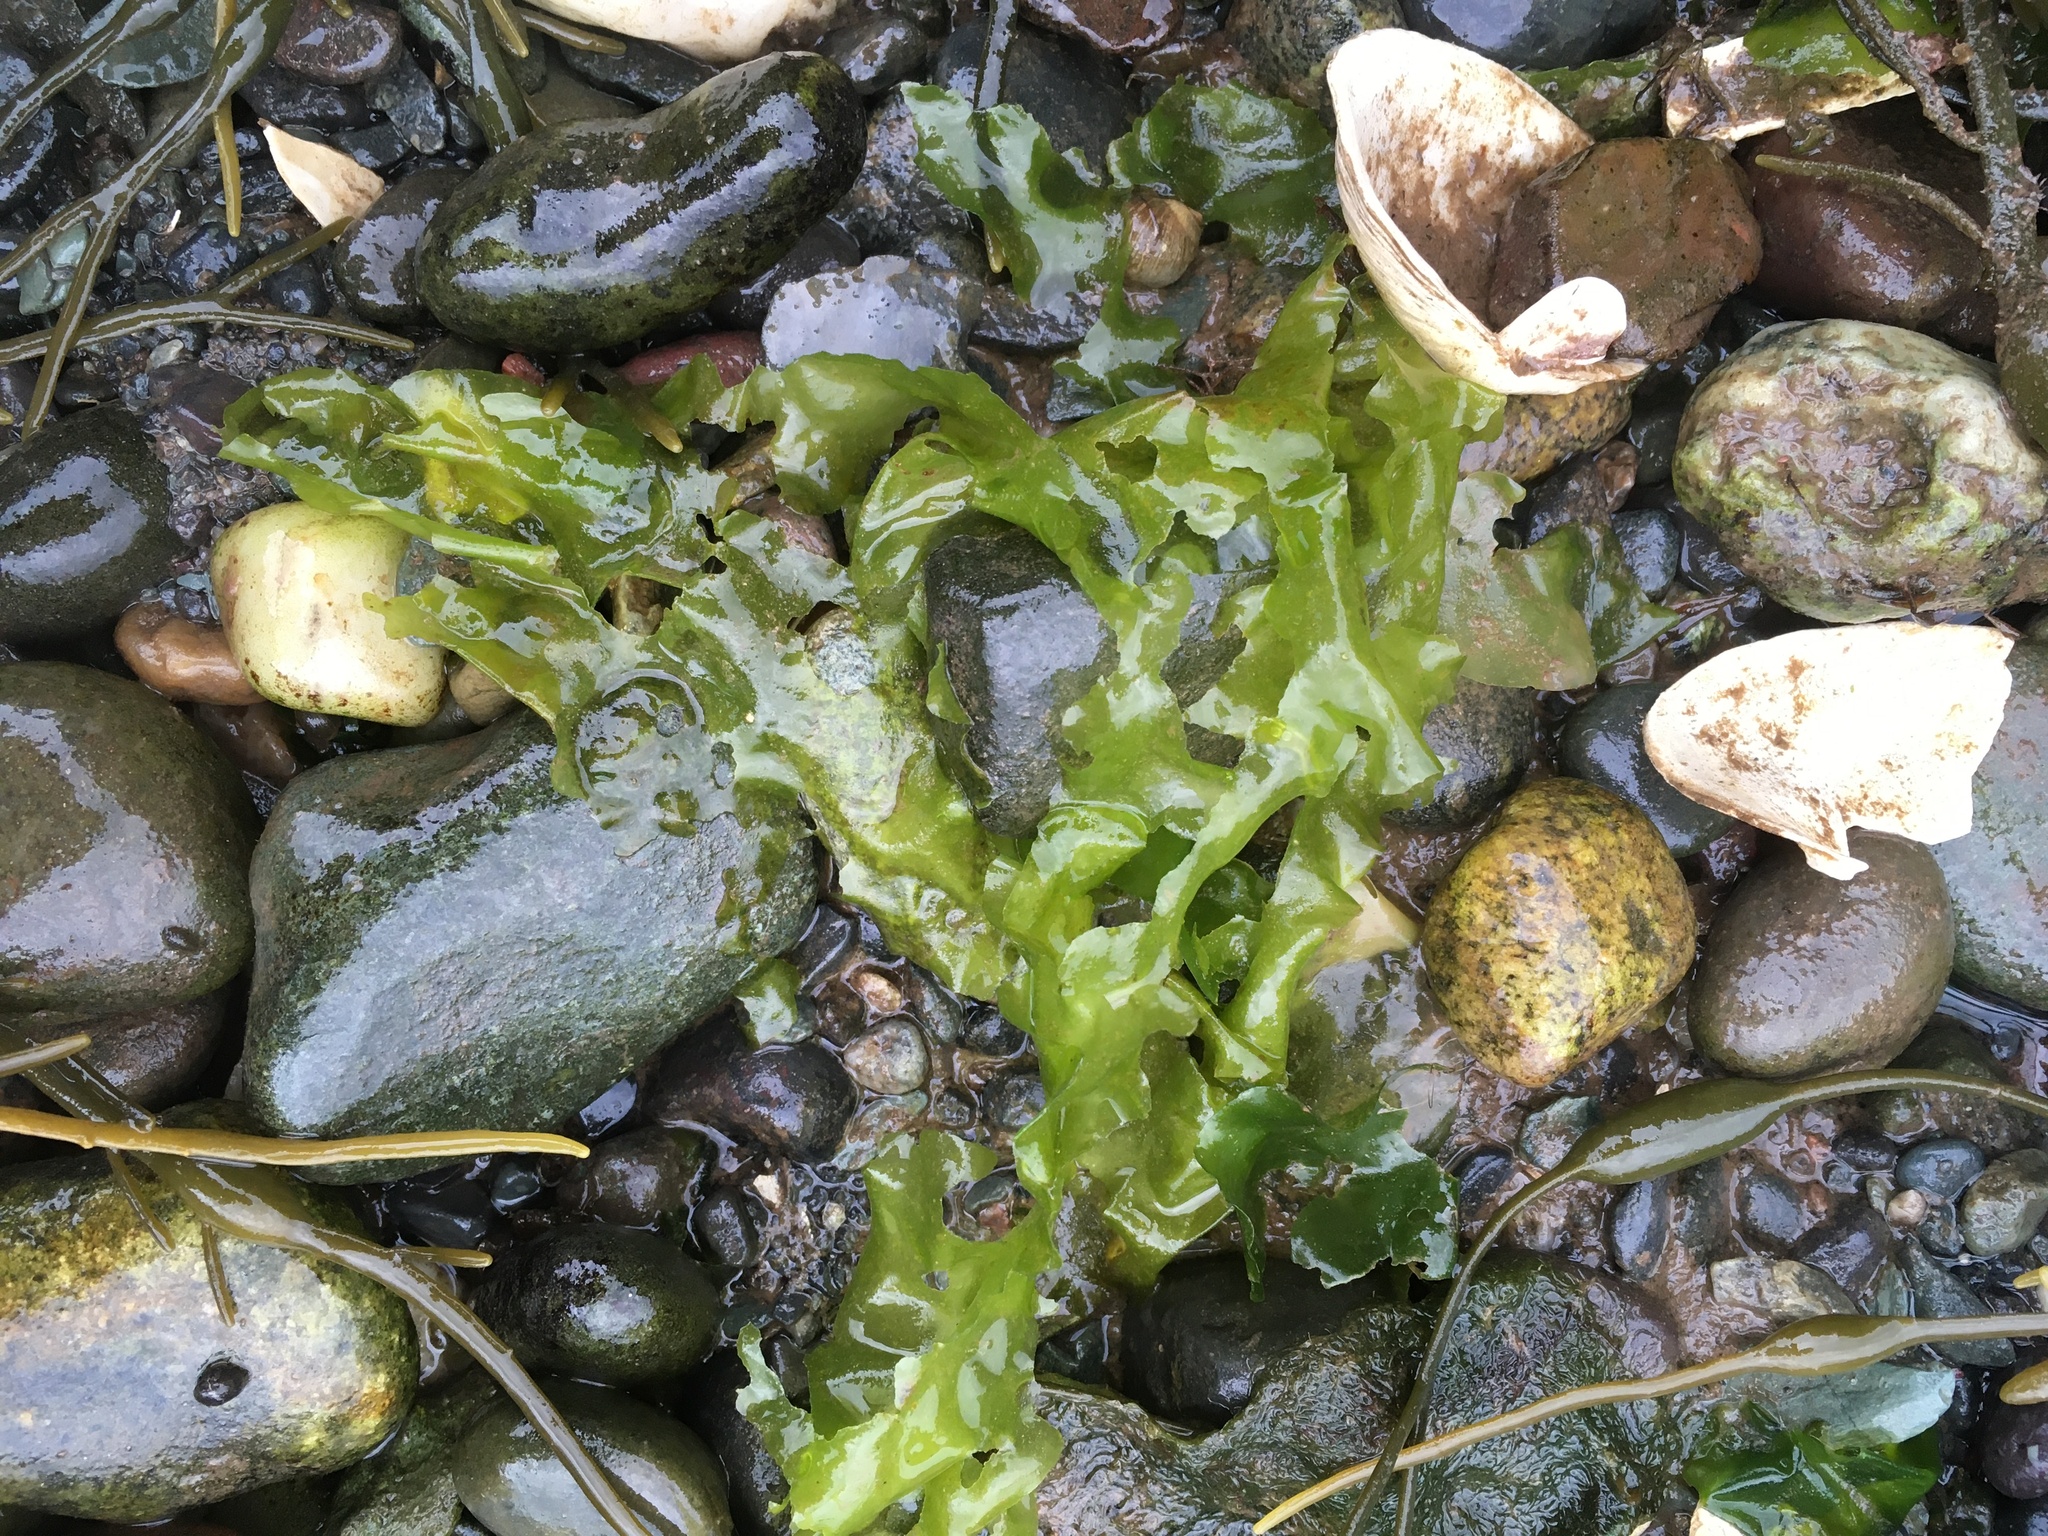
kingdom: Plantae
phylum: Chlorophyta
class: Ulvophyceae
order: Ulvales
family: Ulvaceae
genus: Ulva
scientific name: Ulva lactuca
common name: Sea lettuce
